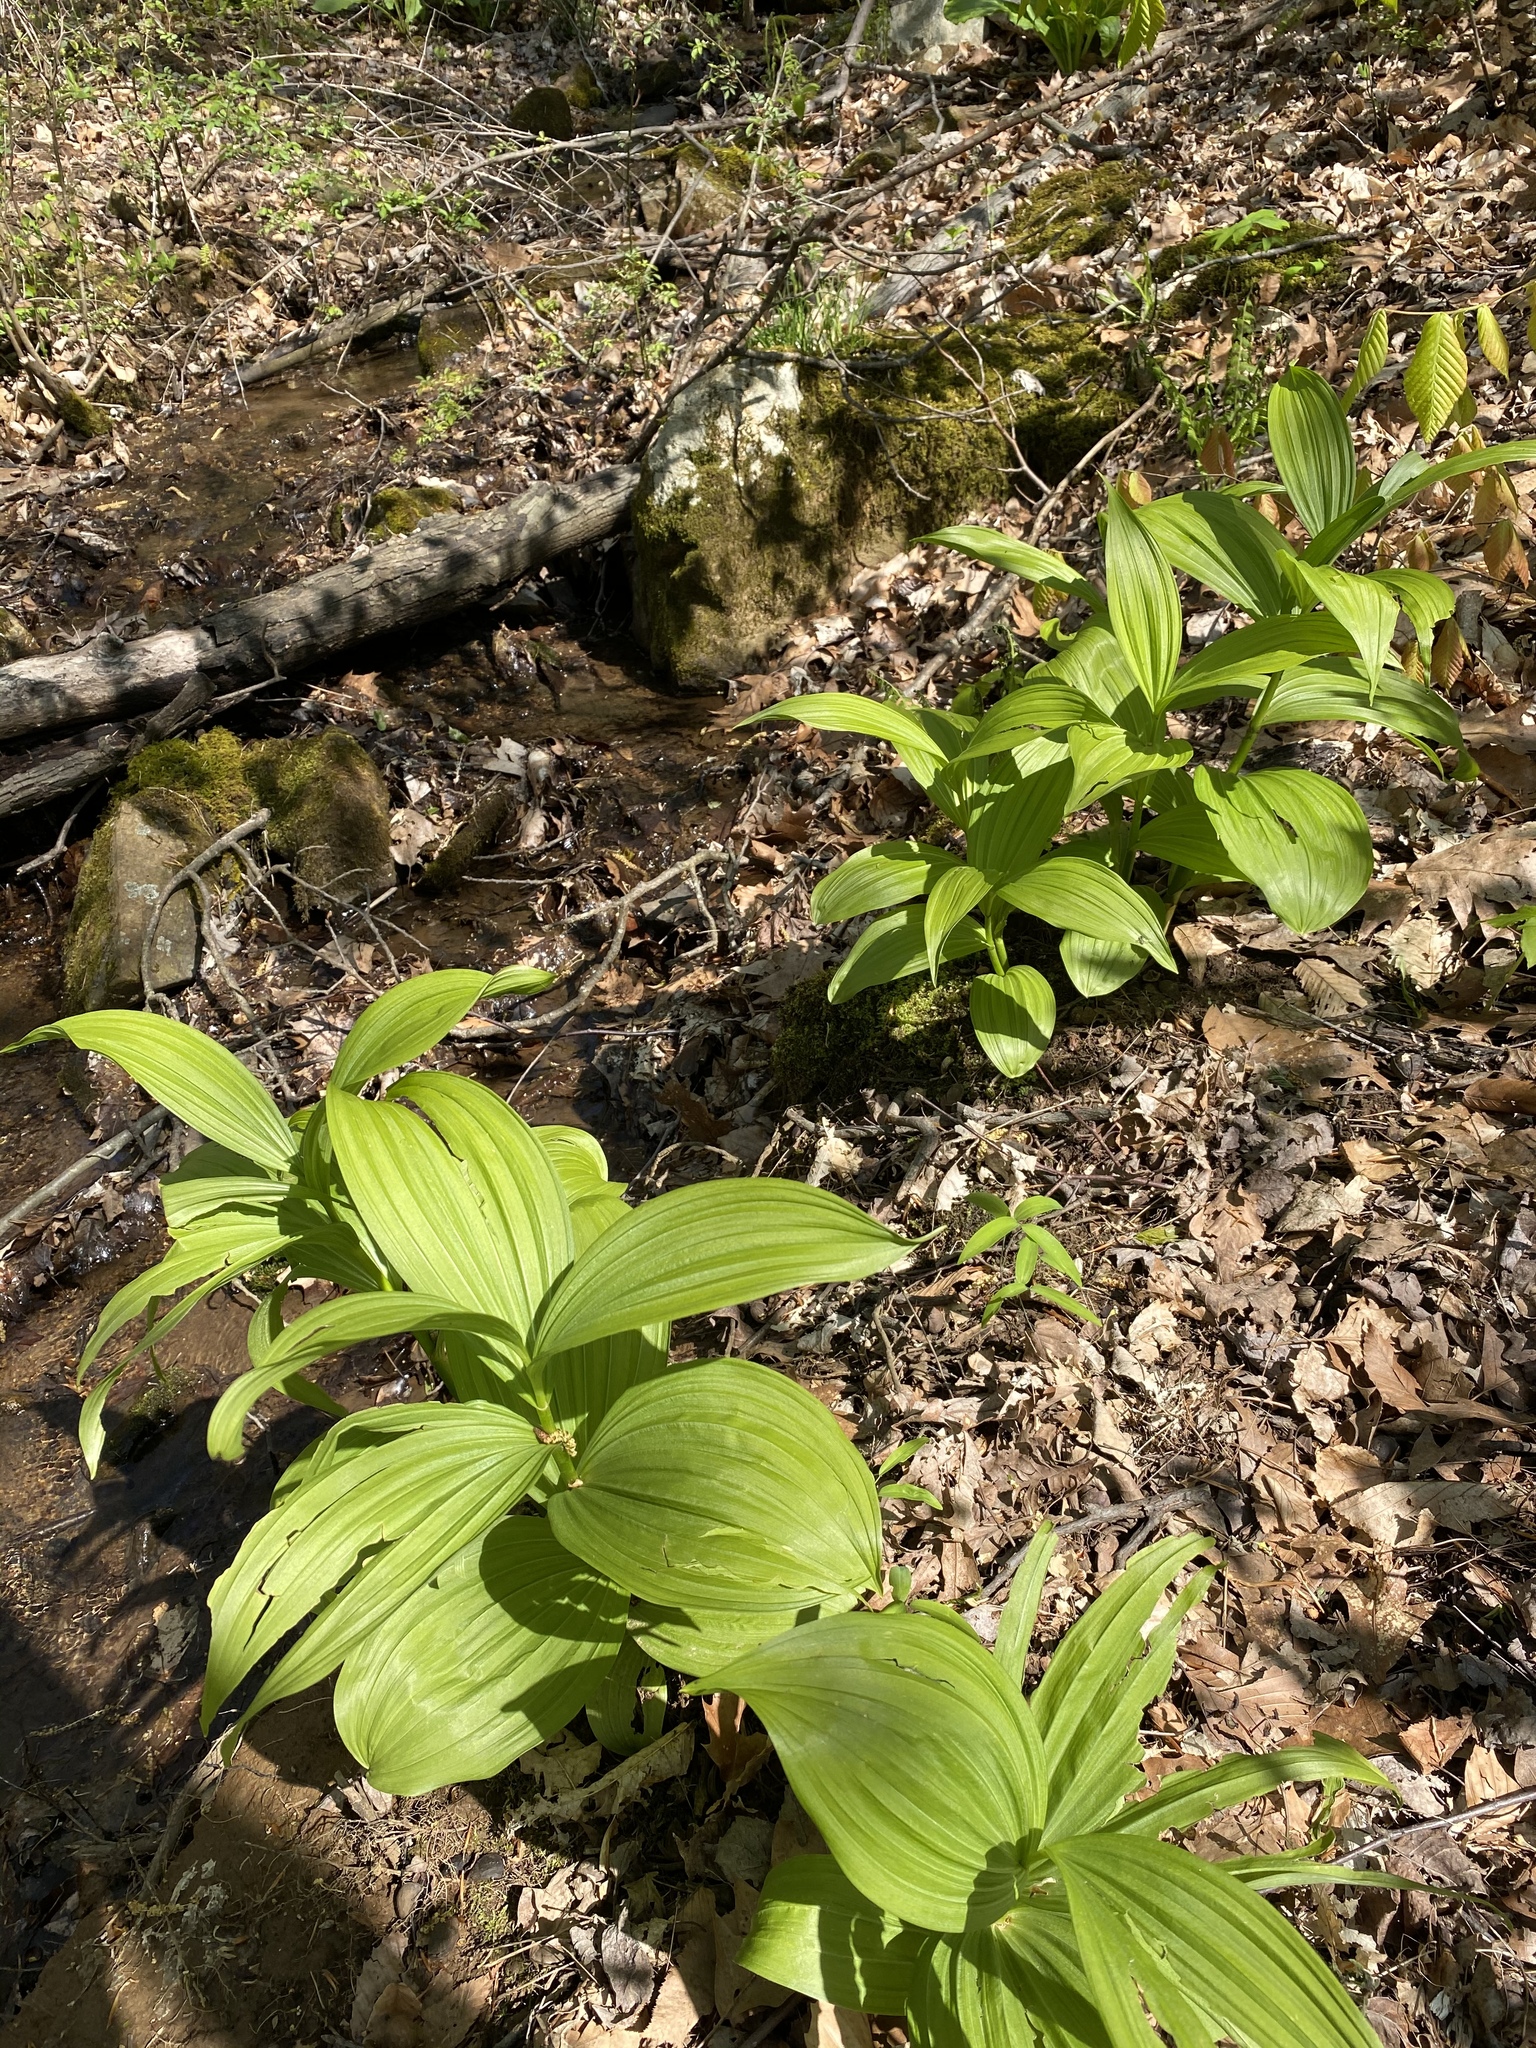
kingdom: Plantae
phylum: Tracheophyta
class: Liliopsida
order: Liliales
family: Melanthiaceae
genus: Veratrum
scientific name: Veratrum viride
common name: American false hellebore
